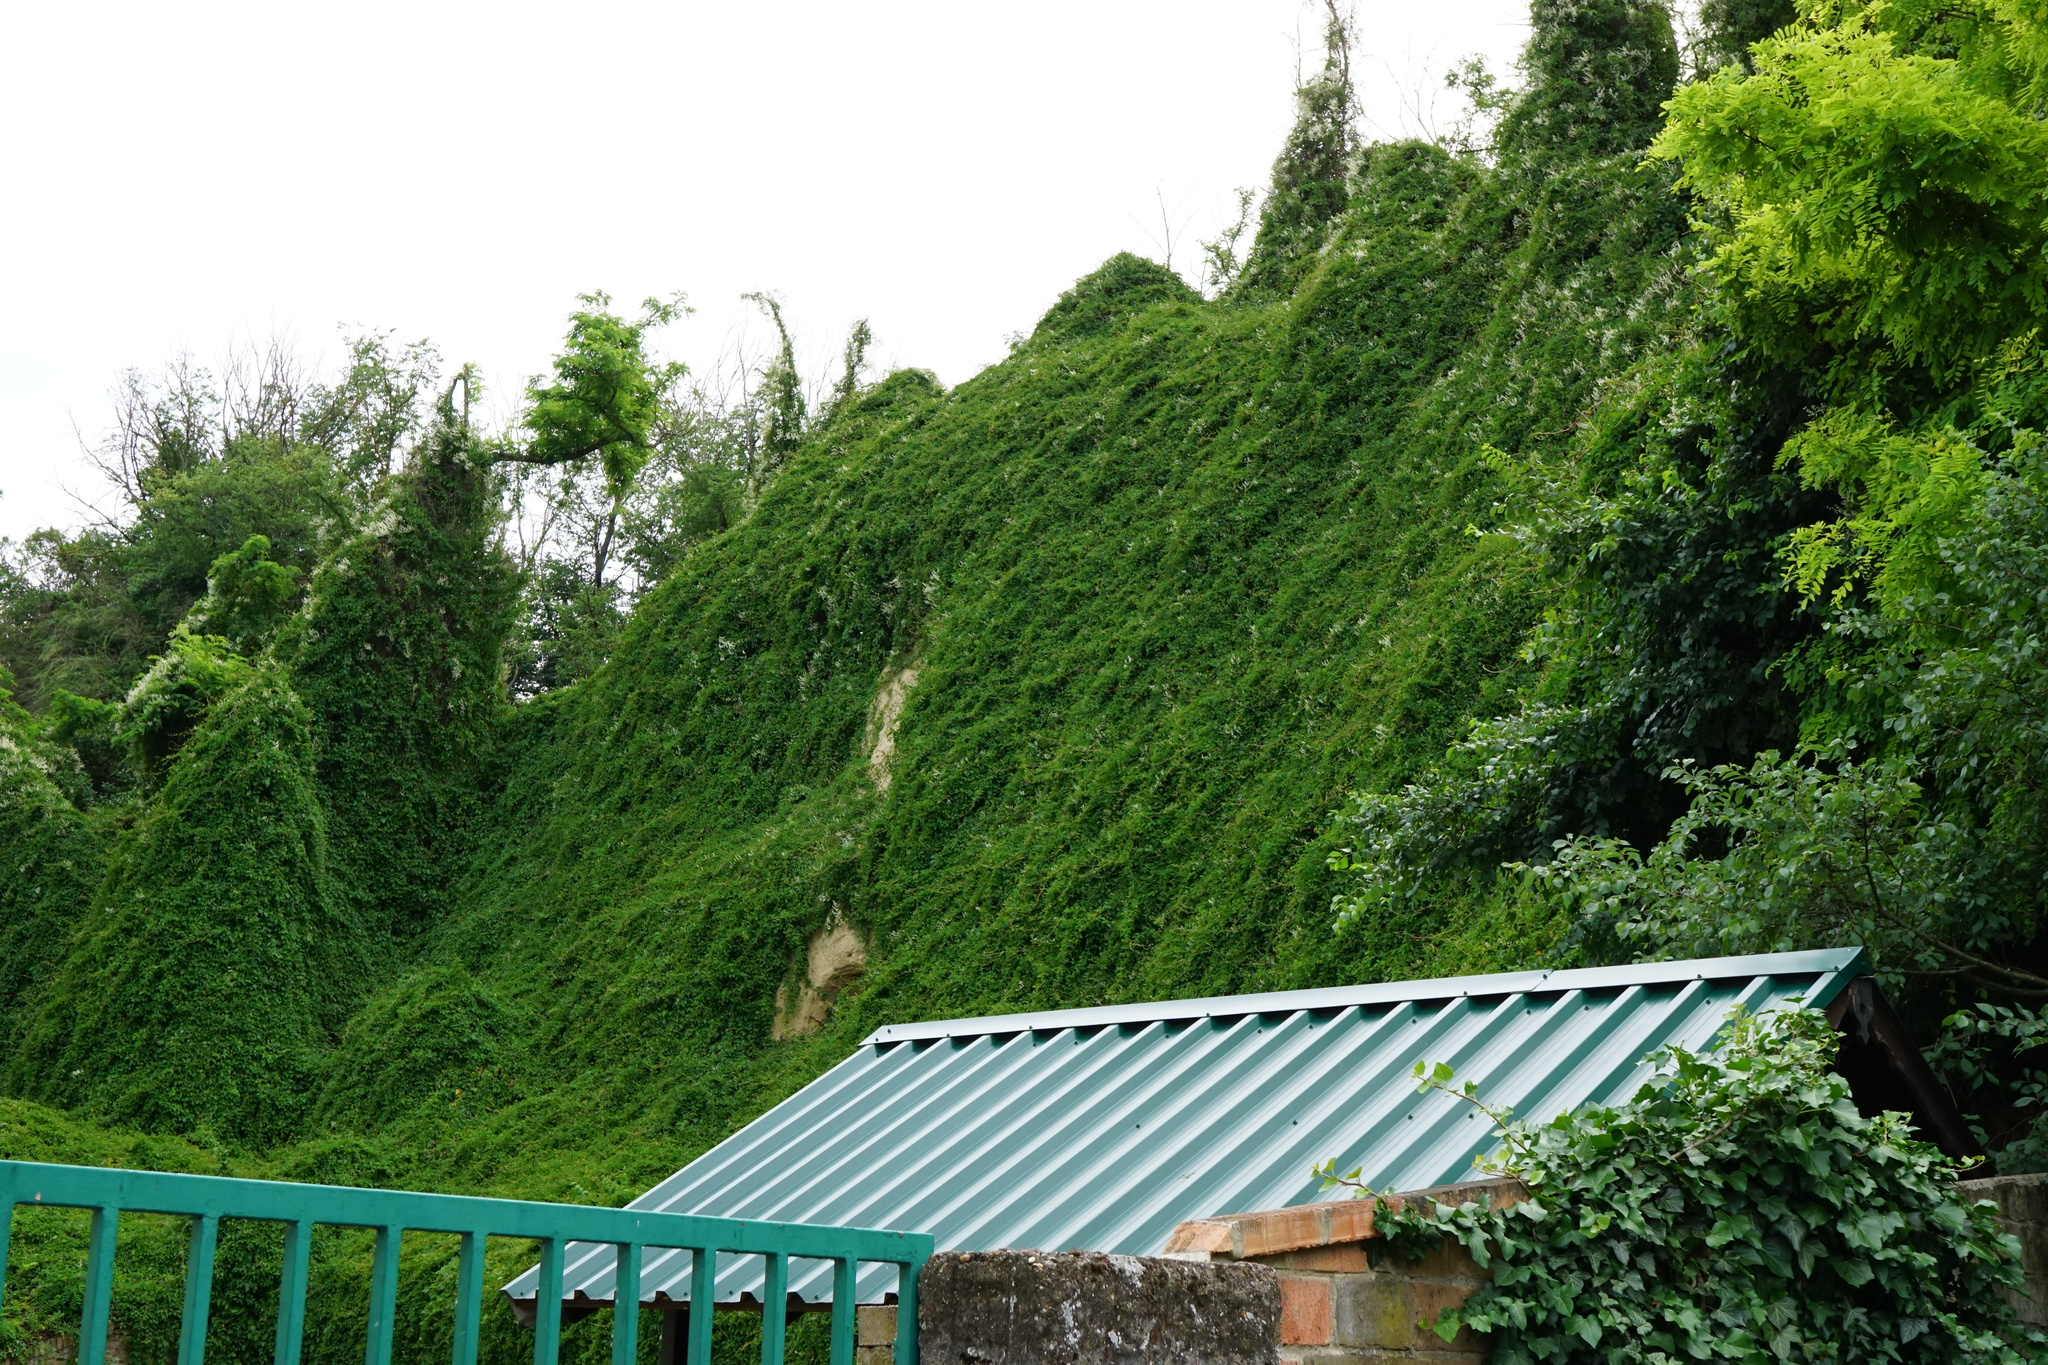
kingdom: Plantae
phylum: Tracheophyta
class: Magnoliopsida
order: Caryophyllales
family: Polygonaceae
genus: Fallopia
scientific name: Fallopia baldschuanica
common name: Russian-vine
